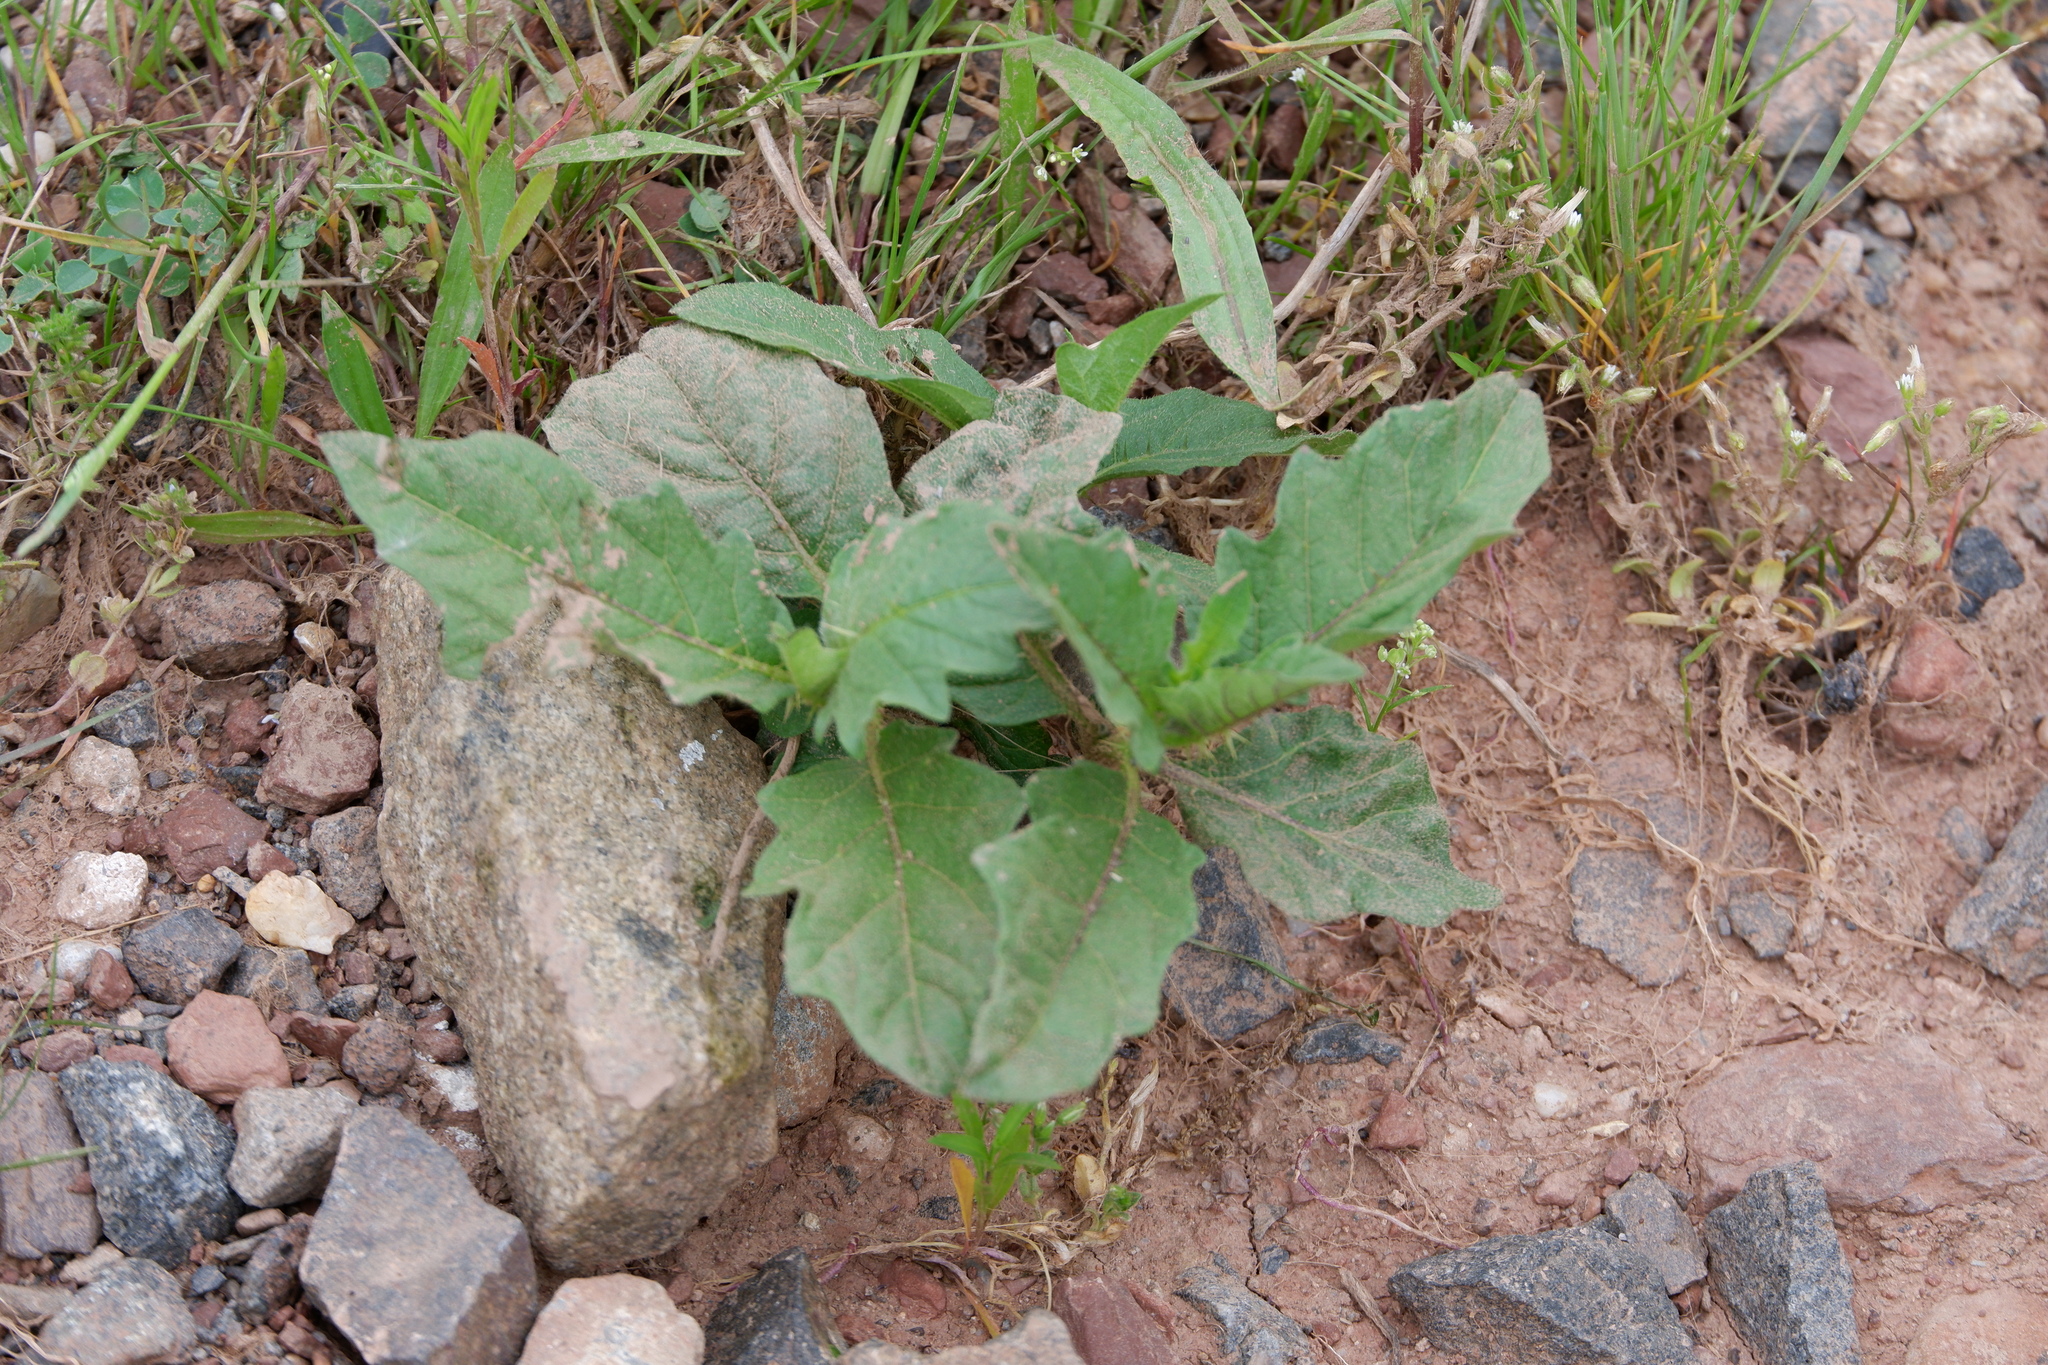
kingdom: Plantae
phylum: Tracheophyta
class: Magnoliopsida
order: Solanales
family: Solanaceae
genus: Solanum
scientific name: Solanum carolinense
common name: Horse-nettle
